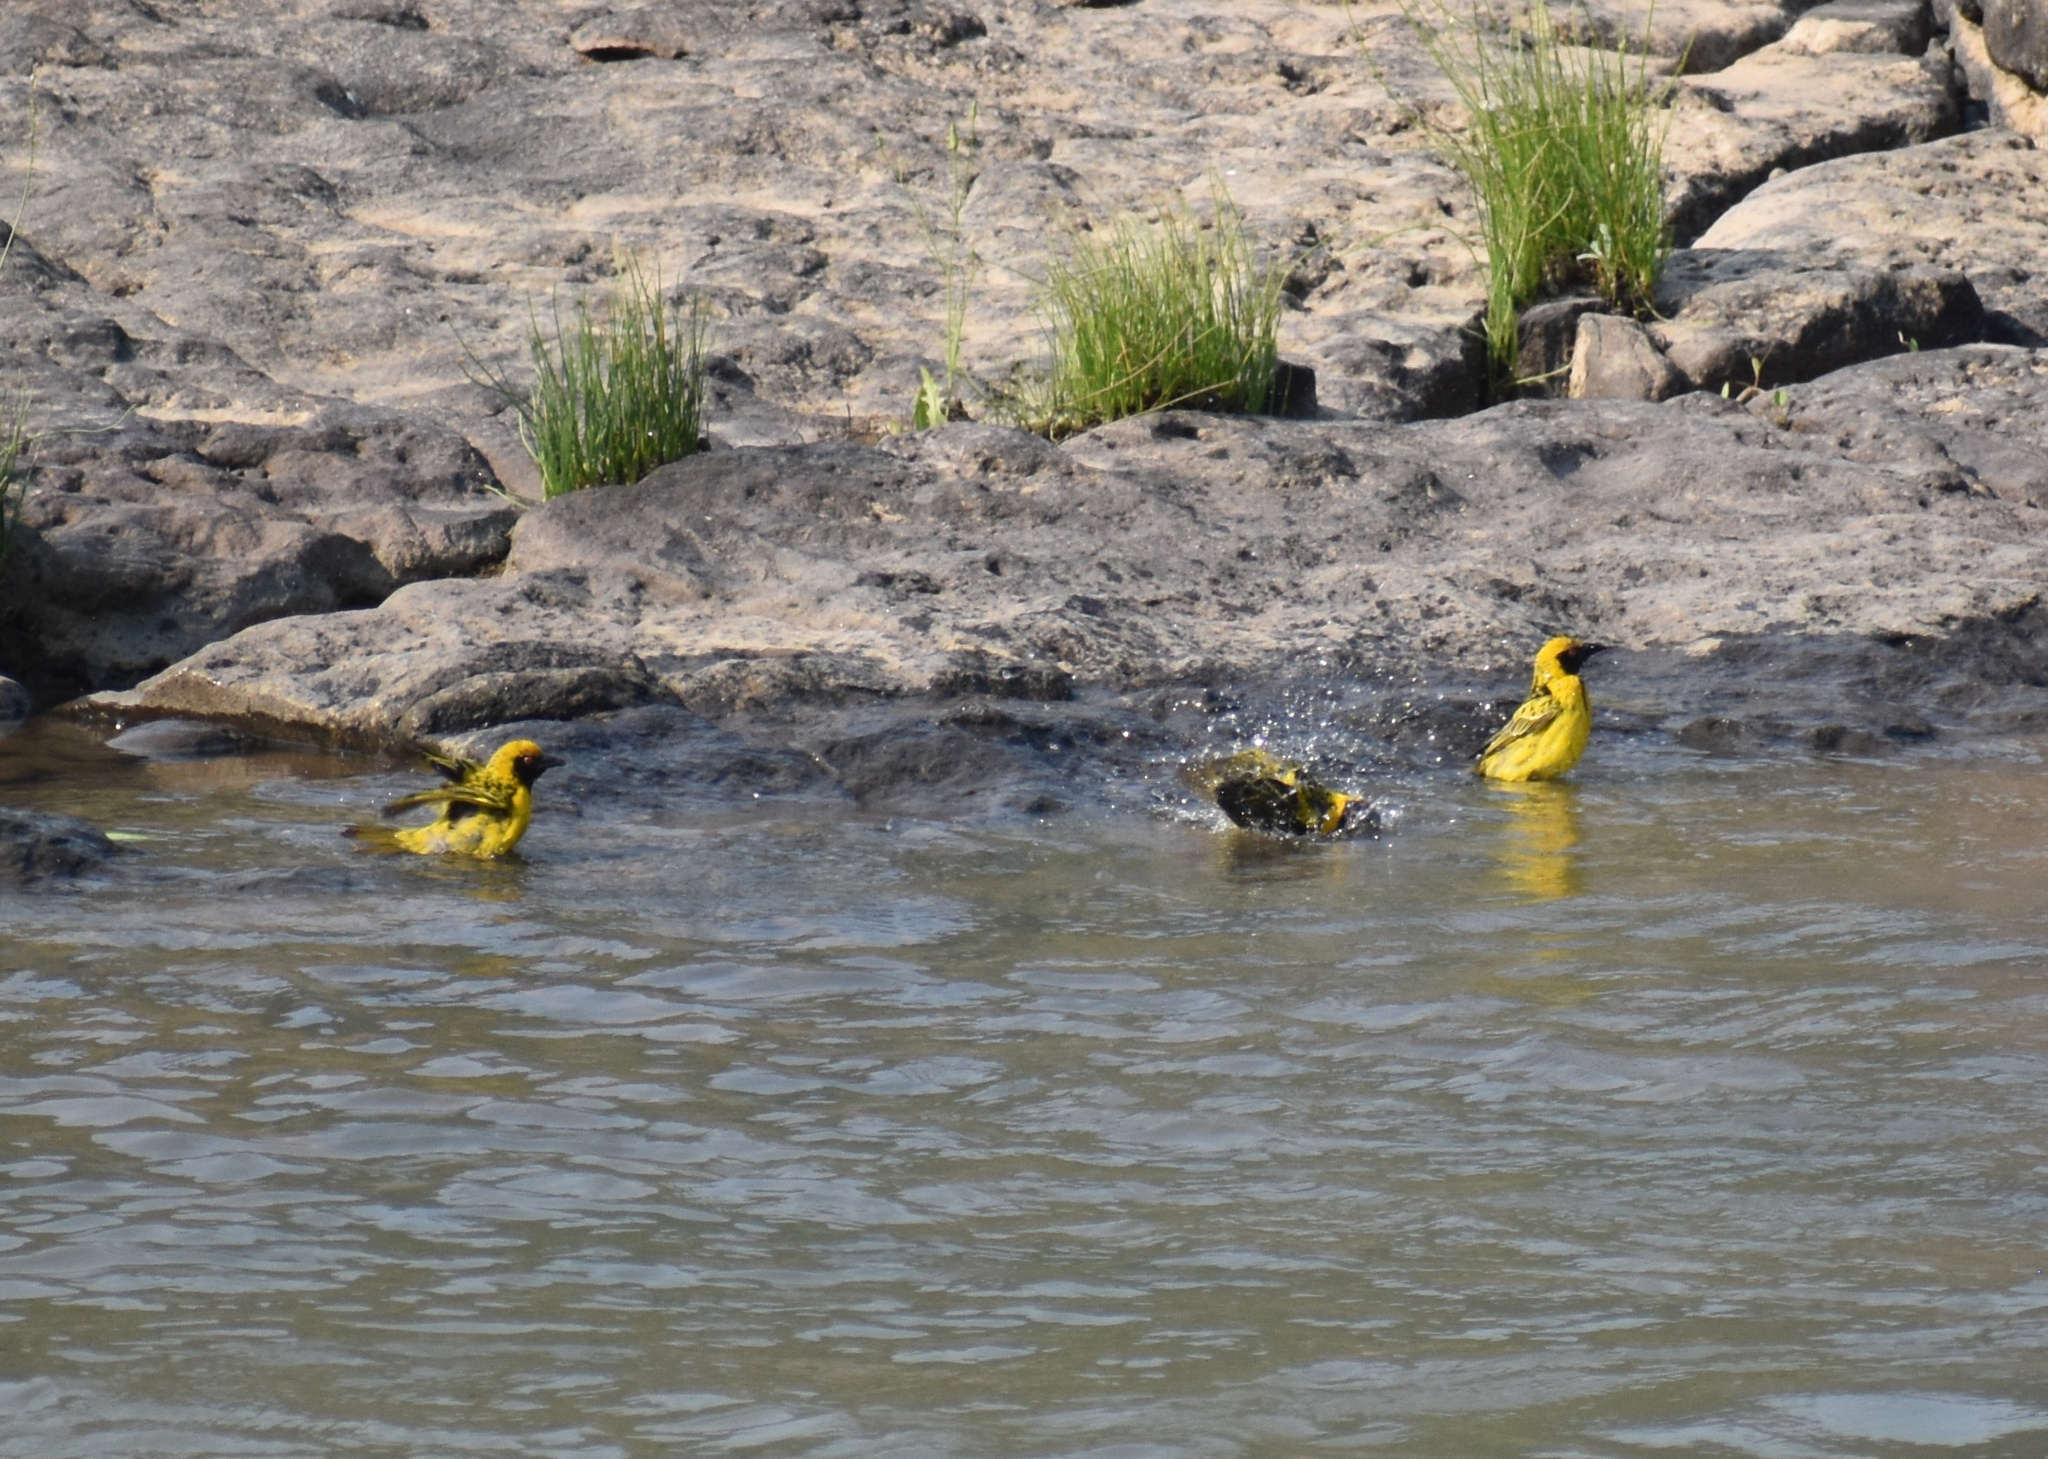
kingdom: Animalia
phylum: Chordata
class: Aves
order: Passeriformes
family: Ploceidae
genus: Ploceus
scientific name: Ploceus cucullatus
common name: Village weaver
